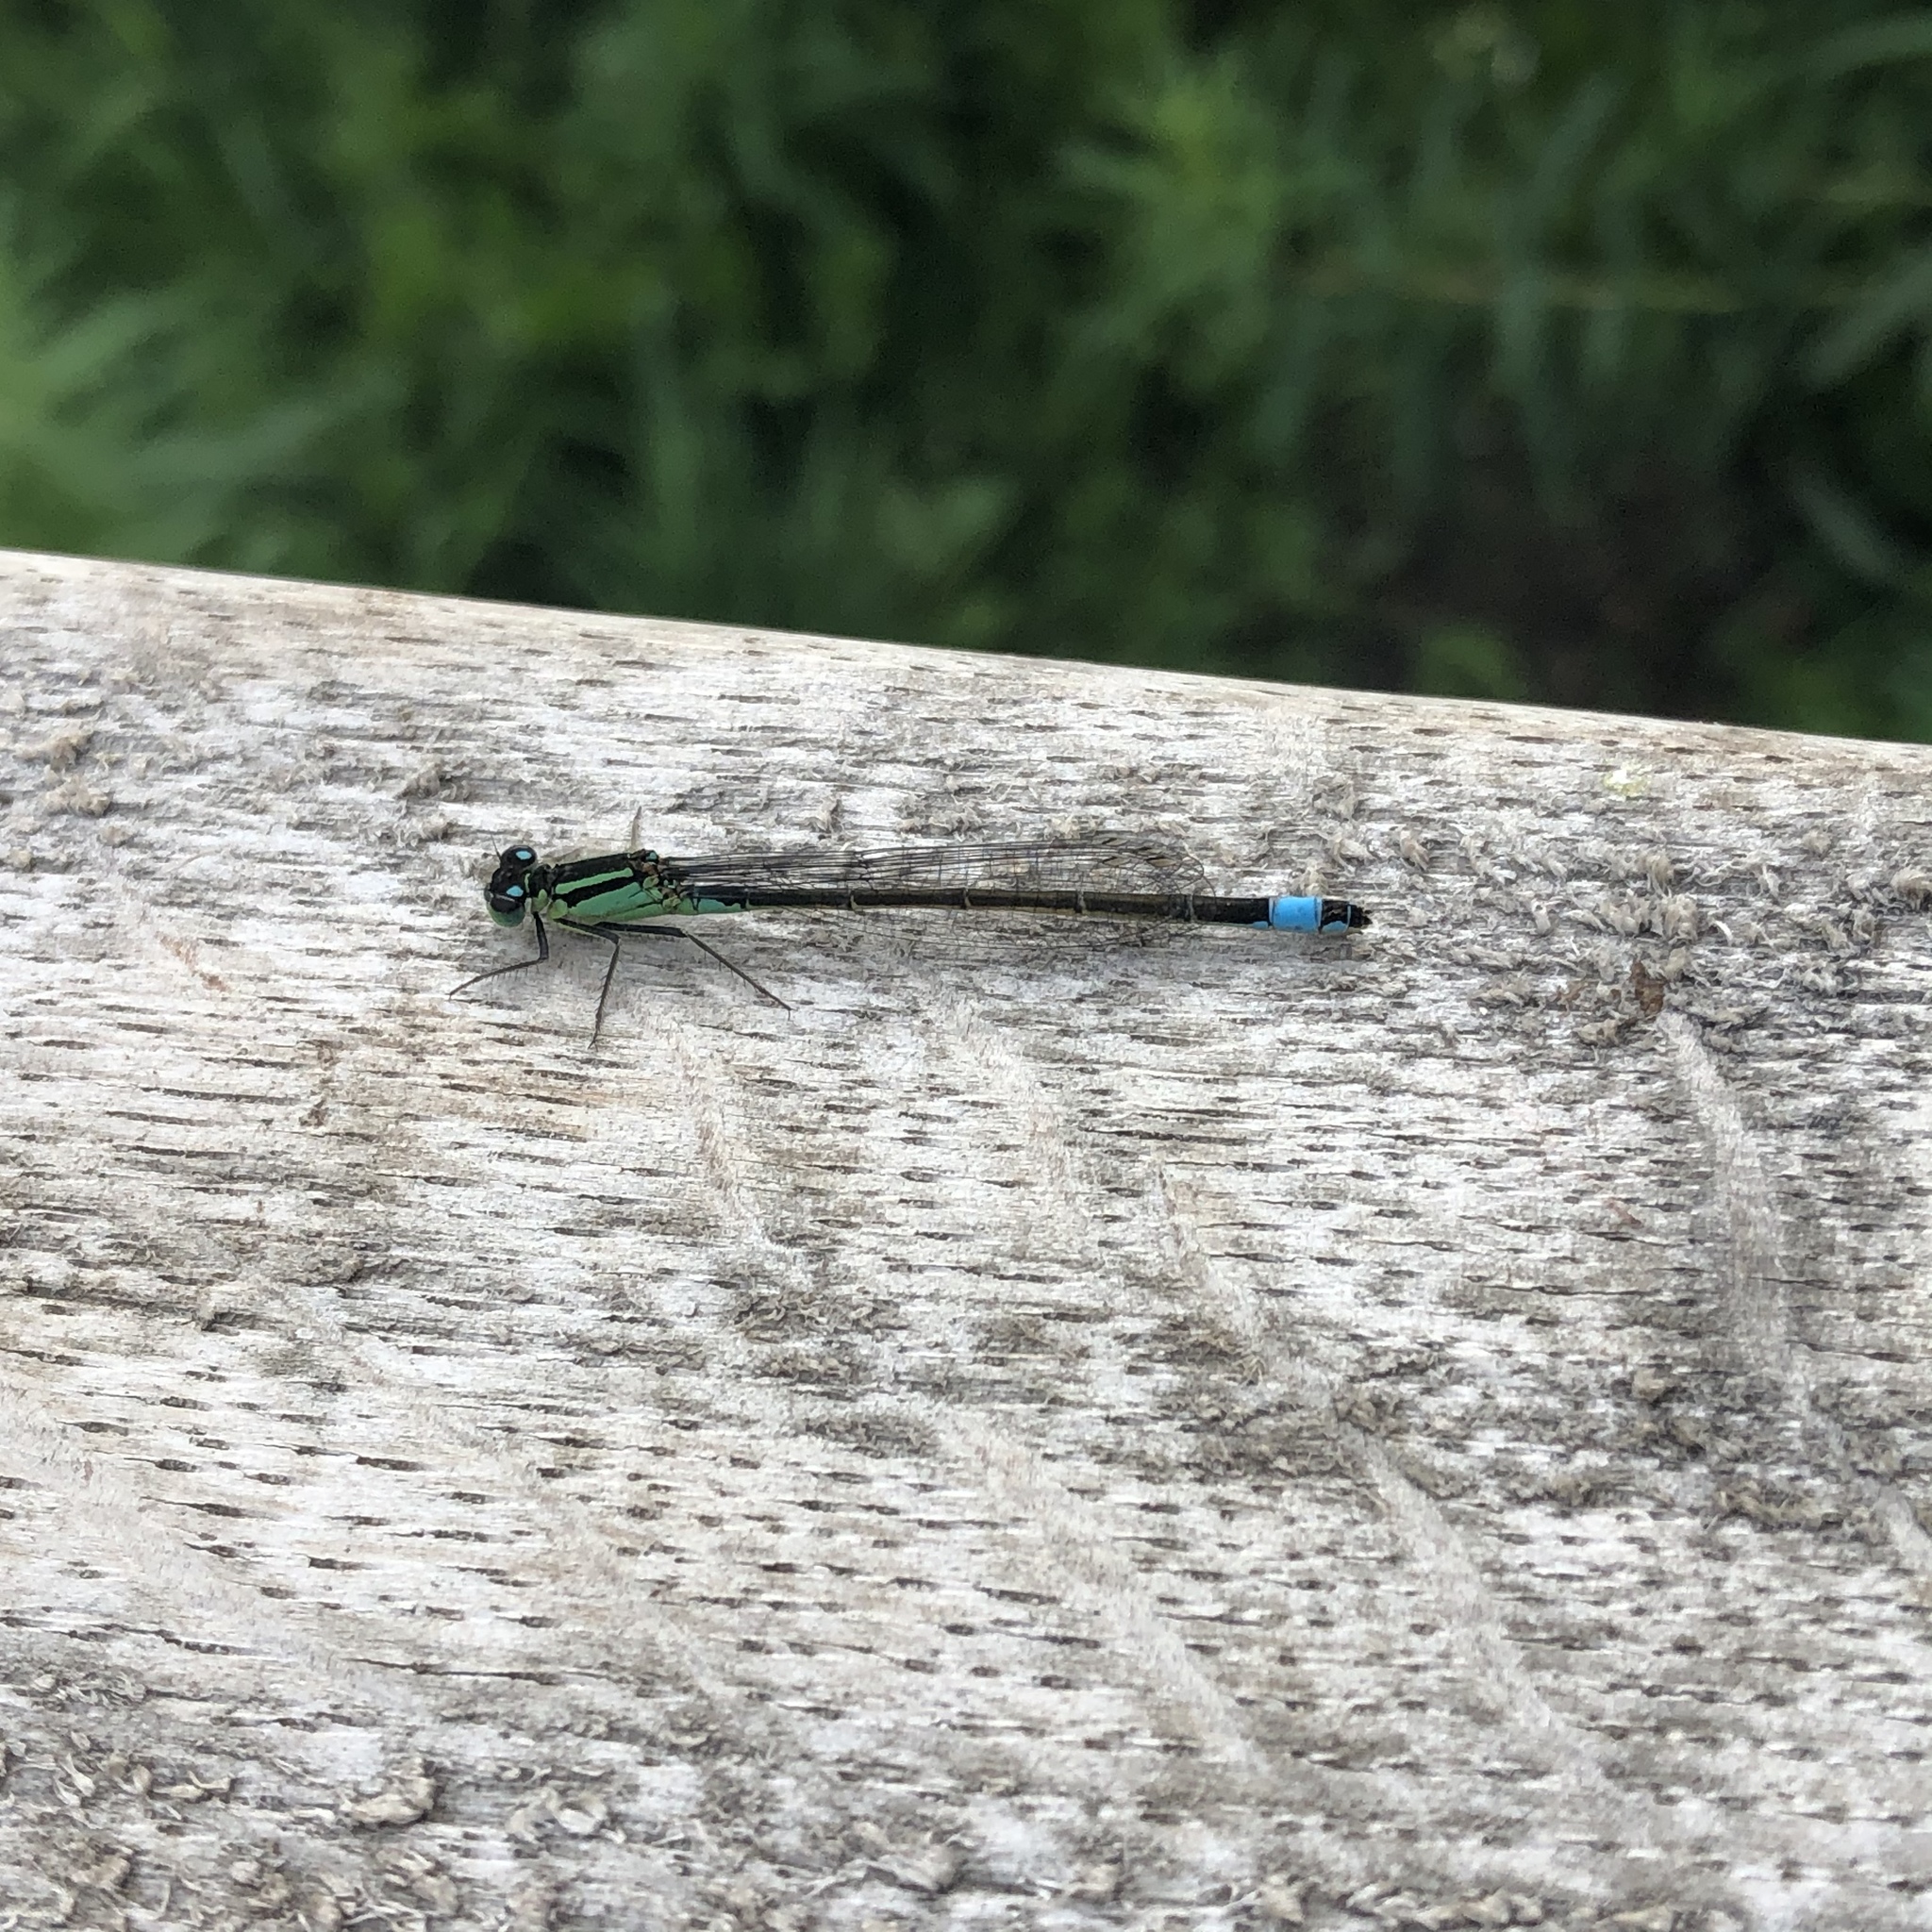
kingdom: Animalia
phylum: Arthropoda
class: Insecta
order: Odonata
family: Coenagrionidae
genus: Ischnura
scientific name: Ischnura elegans
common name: Blue-tailed damselfly
